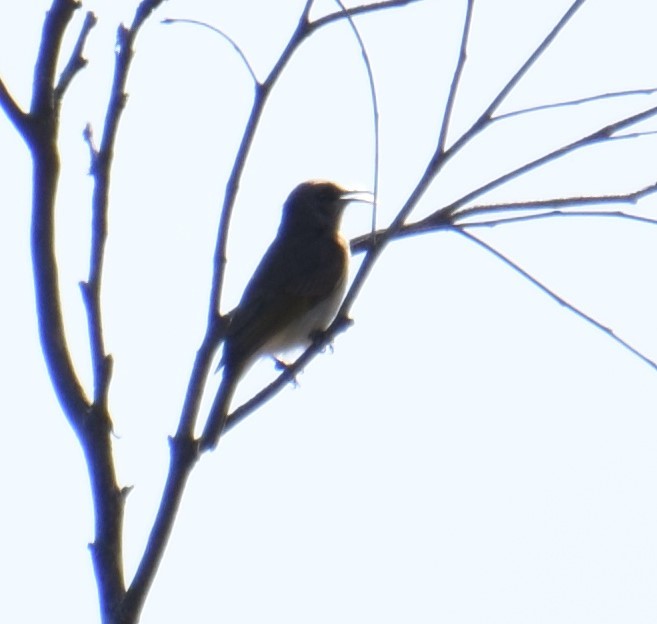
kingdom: Animalia
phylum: Chordata
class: Aves
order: Passeriformes
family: Meliphagidae
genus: Myzomela
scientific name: Myzomela sanguinolenta
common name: Scarlet myzomela
